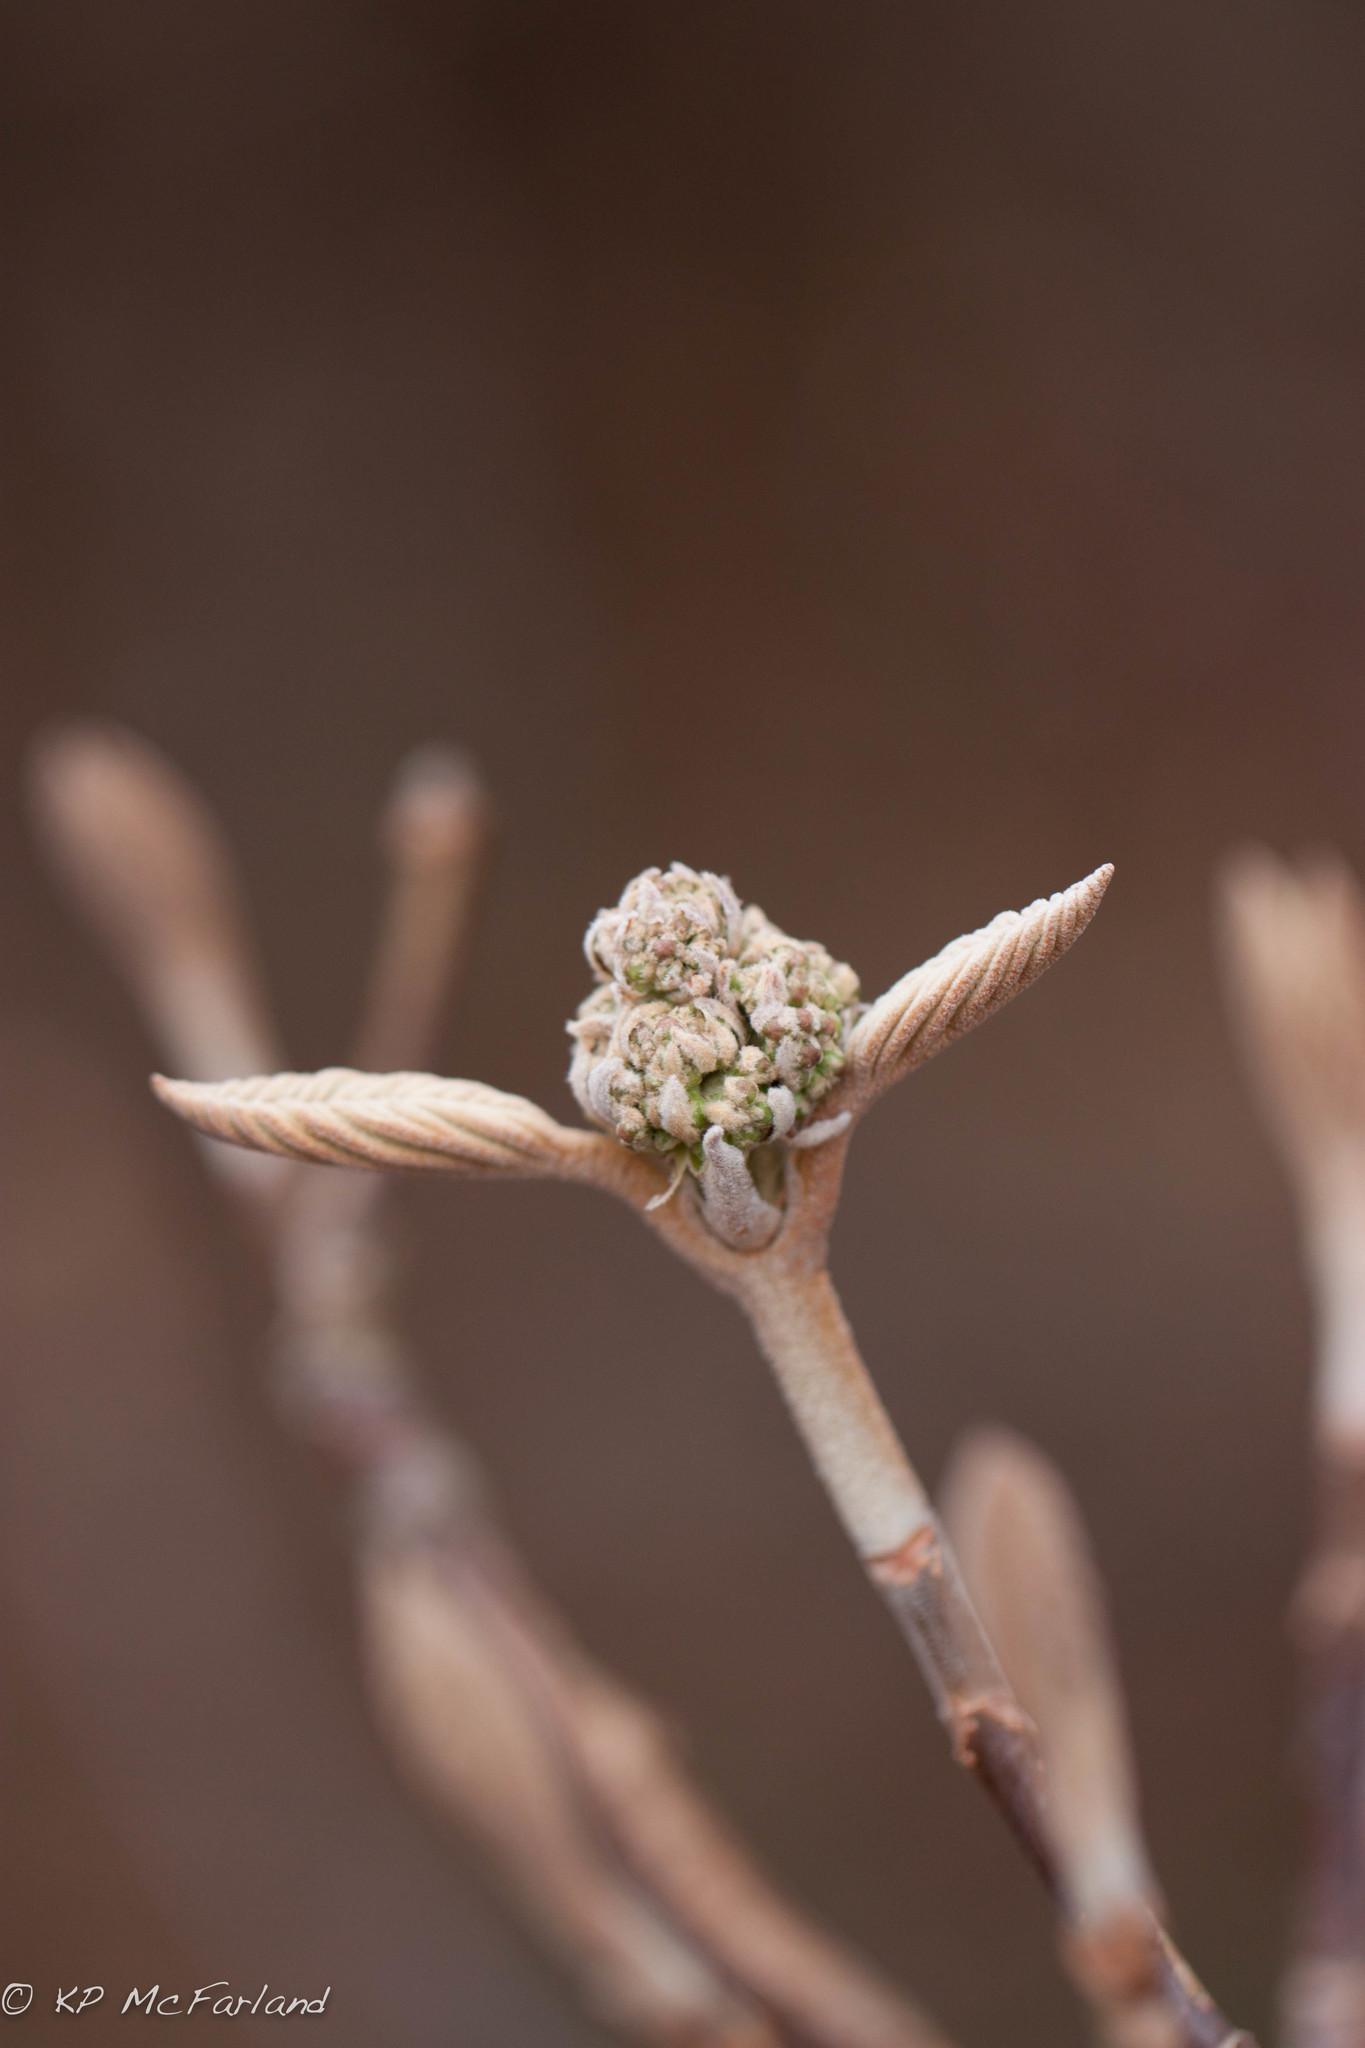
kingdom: Plantae
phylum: Tracheophyta
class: Magnoliopsida
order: Dipsacales
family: Viburnaceae
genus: Viburnum
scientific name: Viburnum lantanoides
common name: Hobblebush
